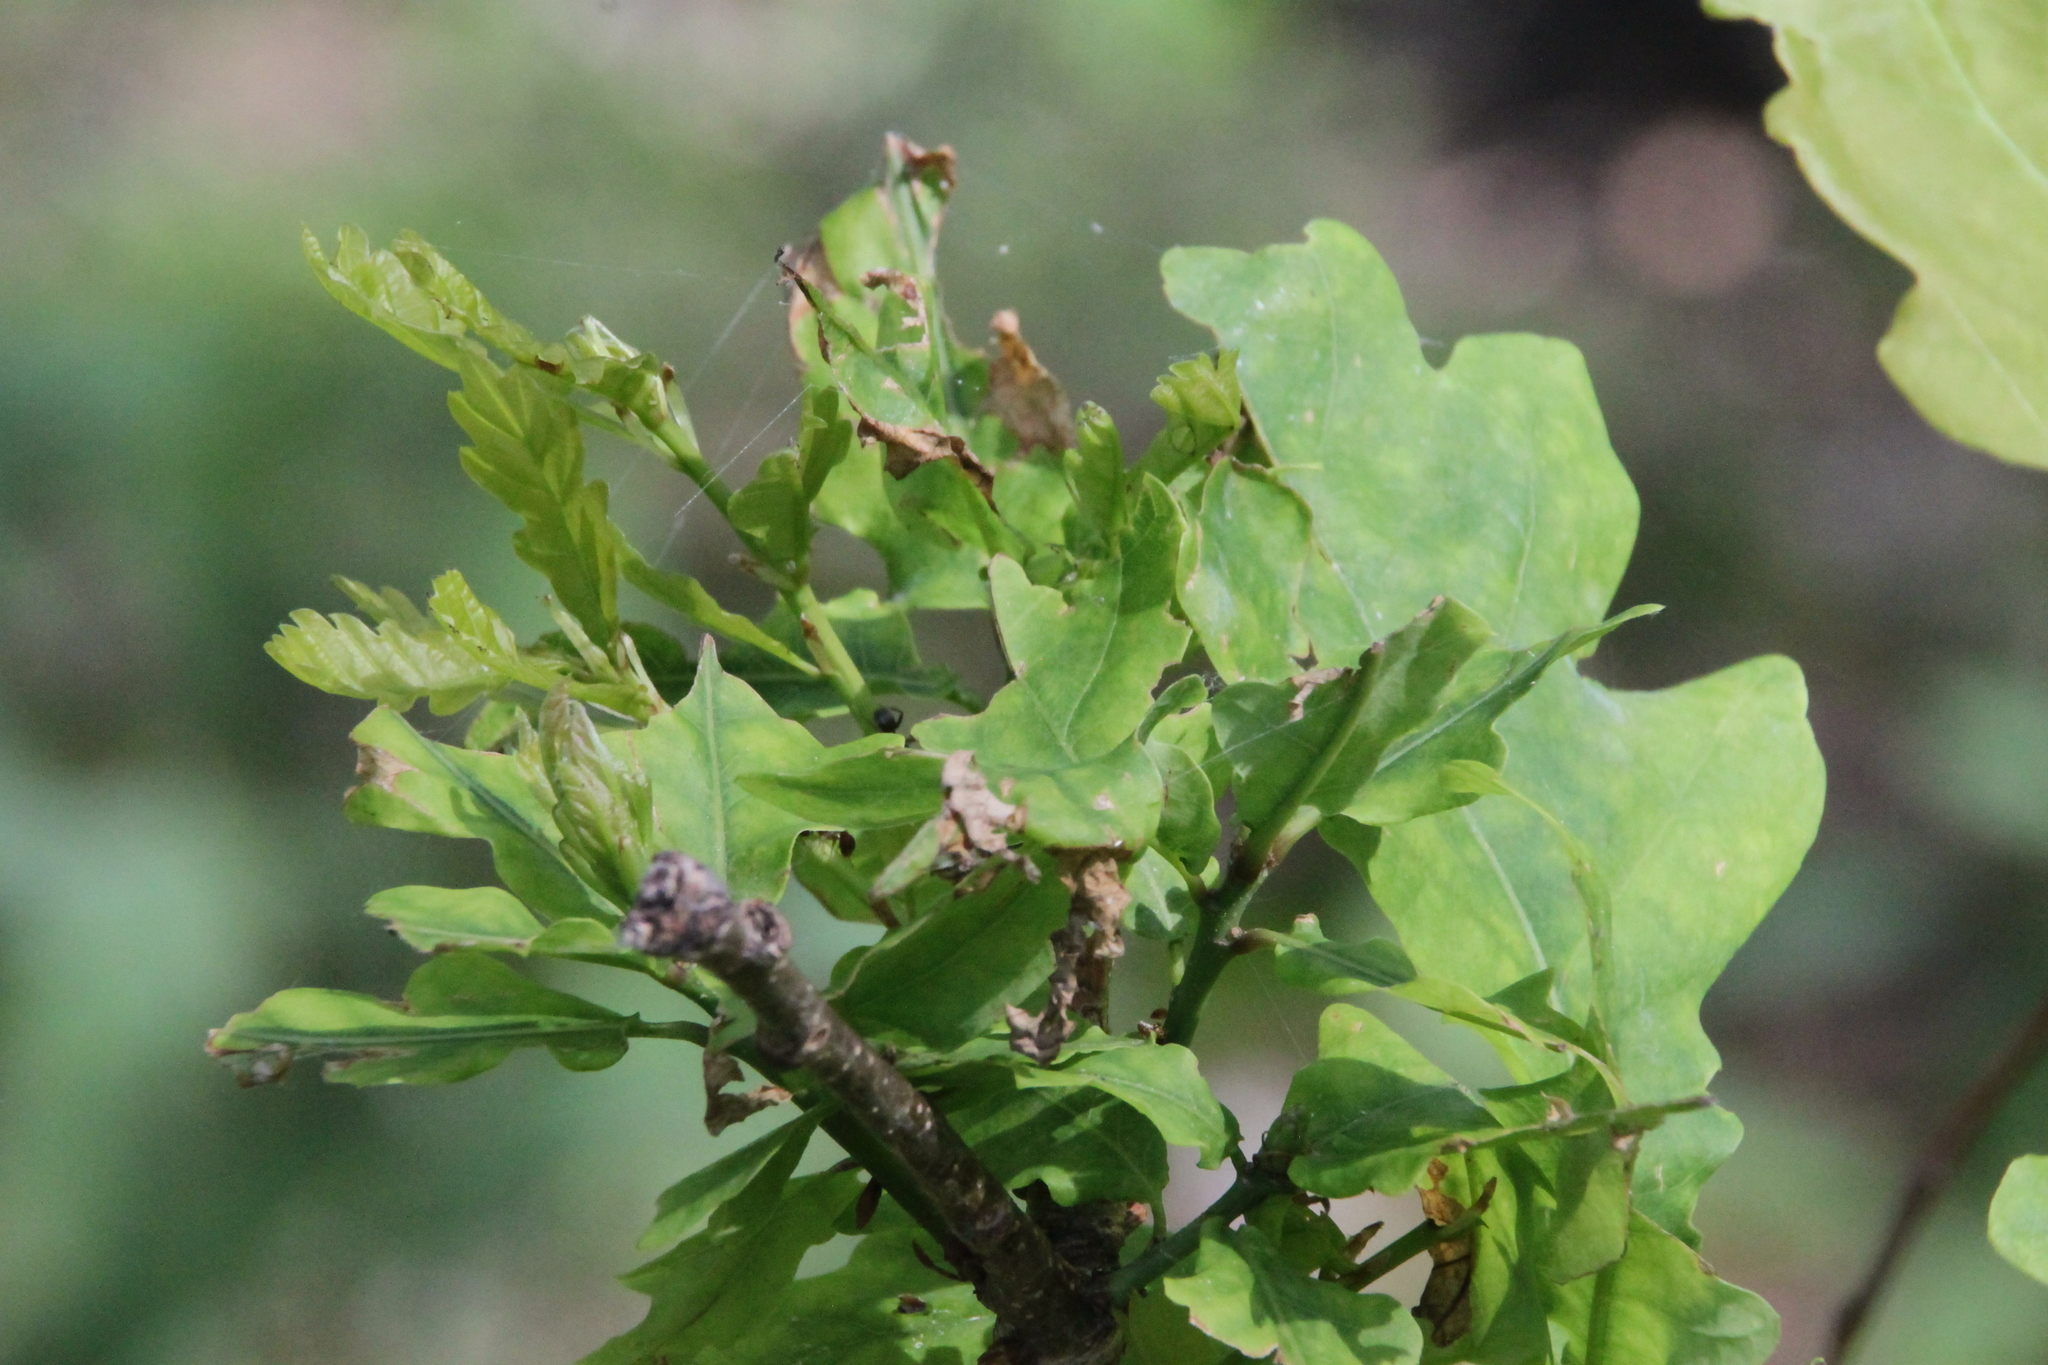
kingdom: Plantae
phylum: Tracheophyta
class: Magnoliopsida
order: Fagales
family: Fagaceae
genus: Quercus
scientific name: Quercus robur
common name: Pedunculate oak
